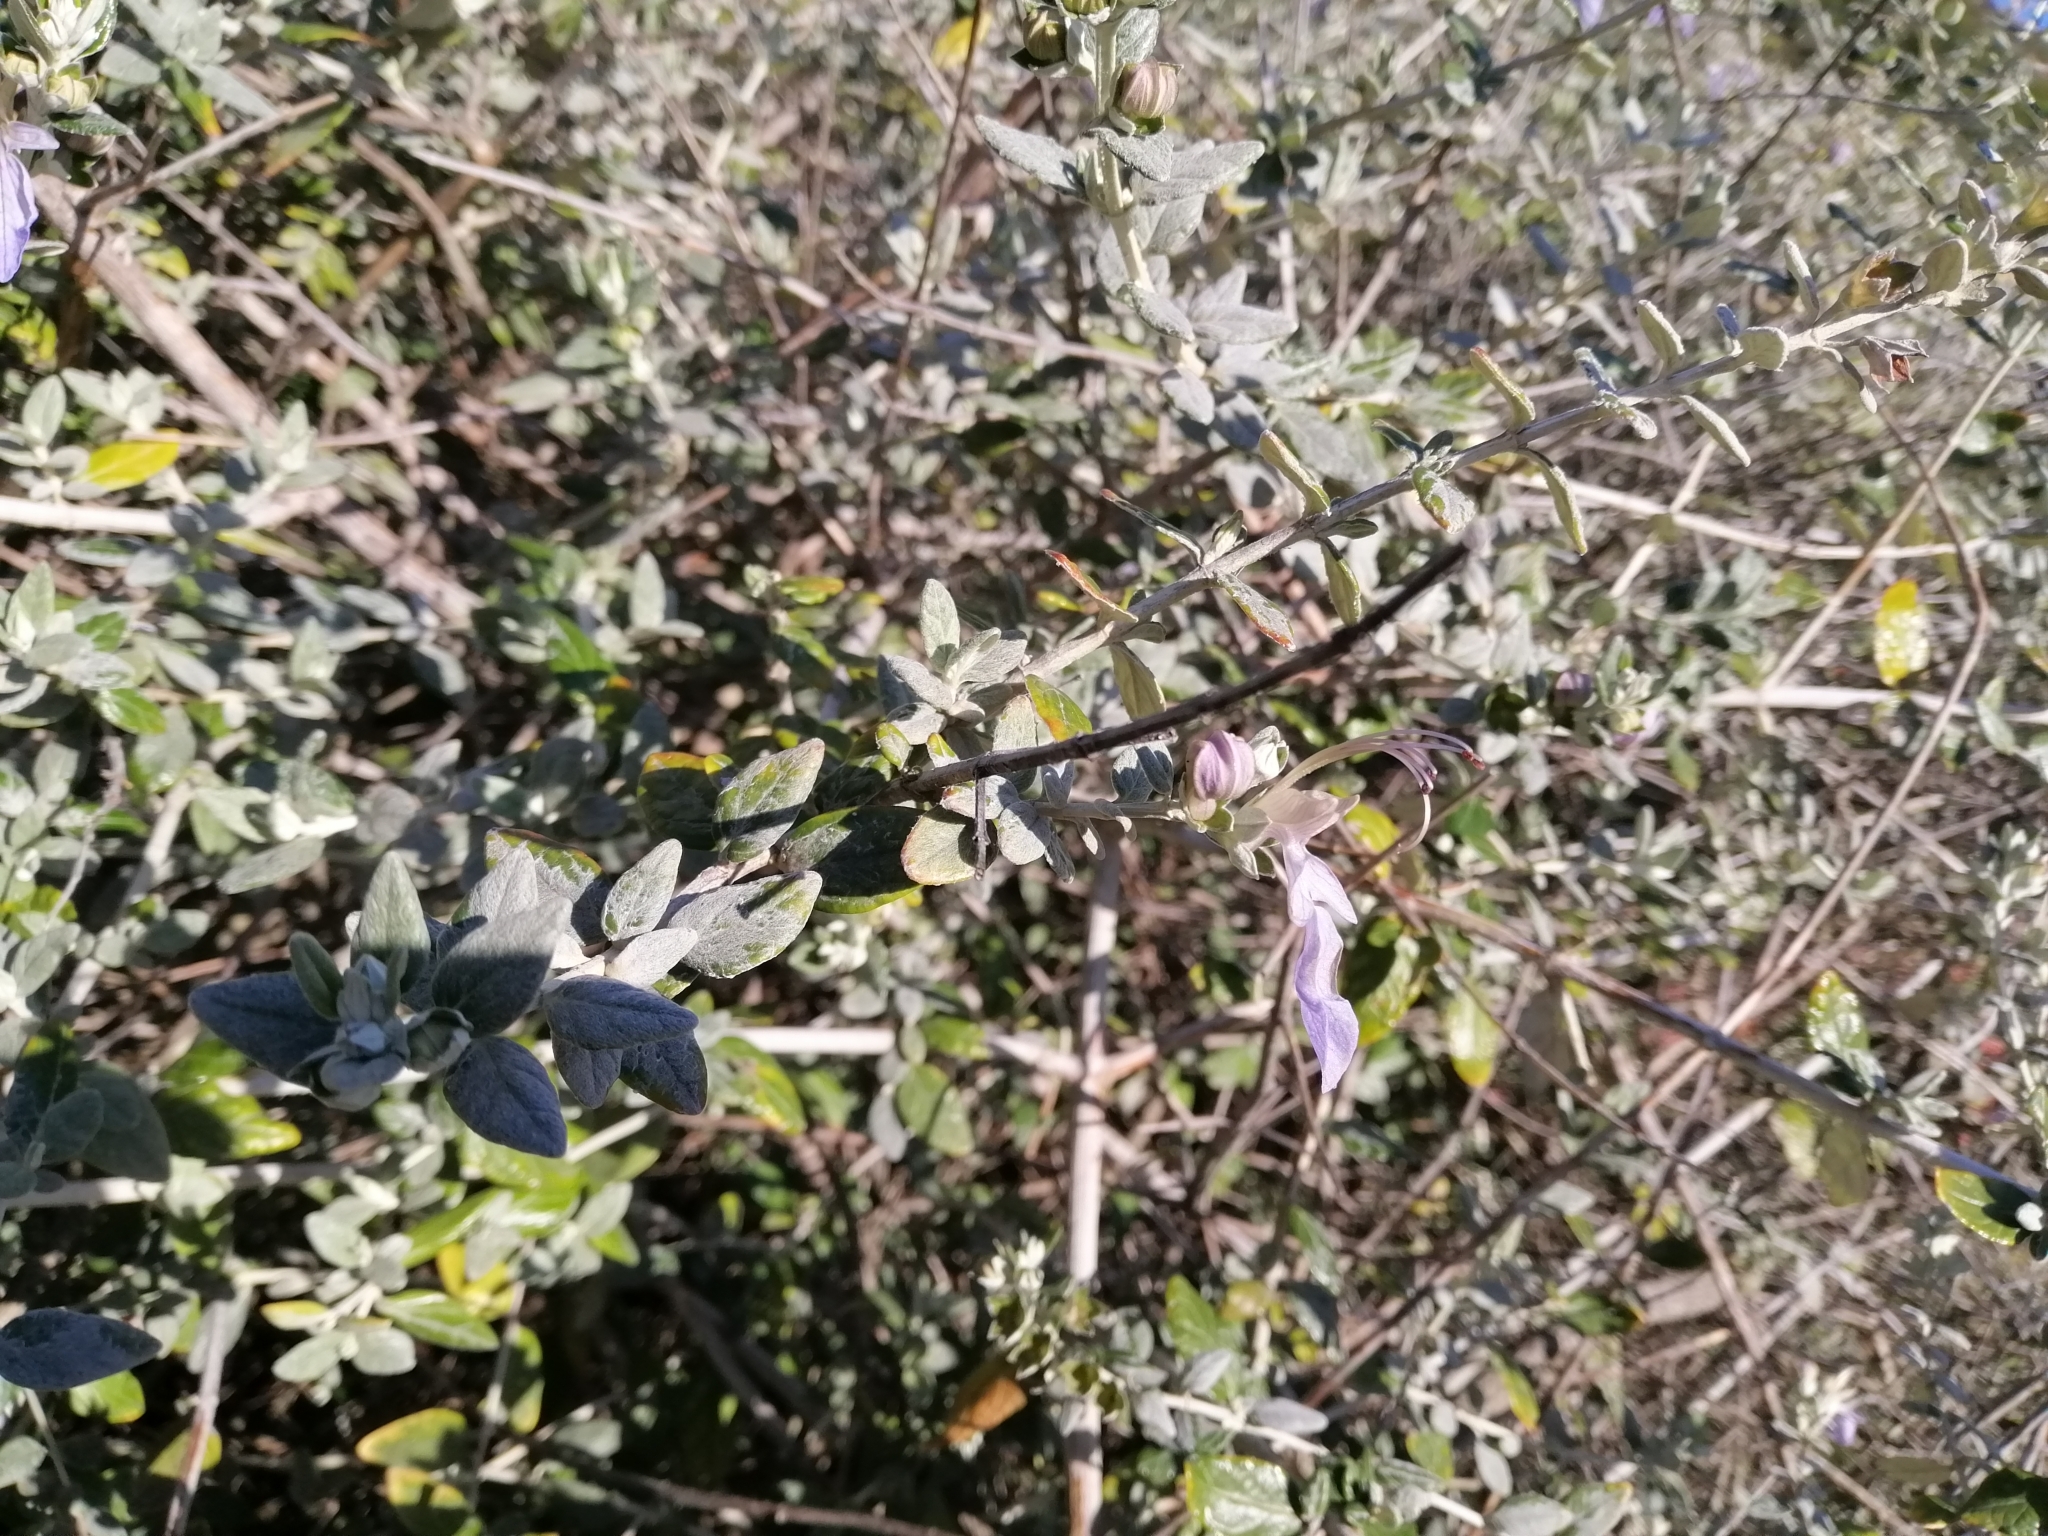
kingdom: Plantae
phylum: Tracheophyta
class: Magnoliopsida
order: Lamiales
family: Lamiaceae
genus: Teucrium
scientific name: Teucrium fruticans
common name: Shrubby germander
